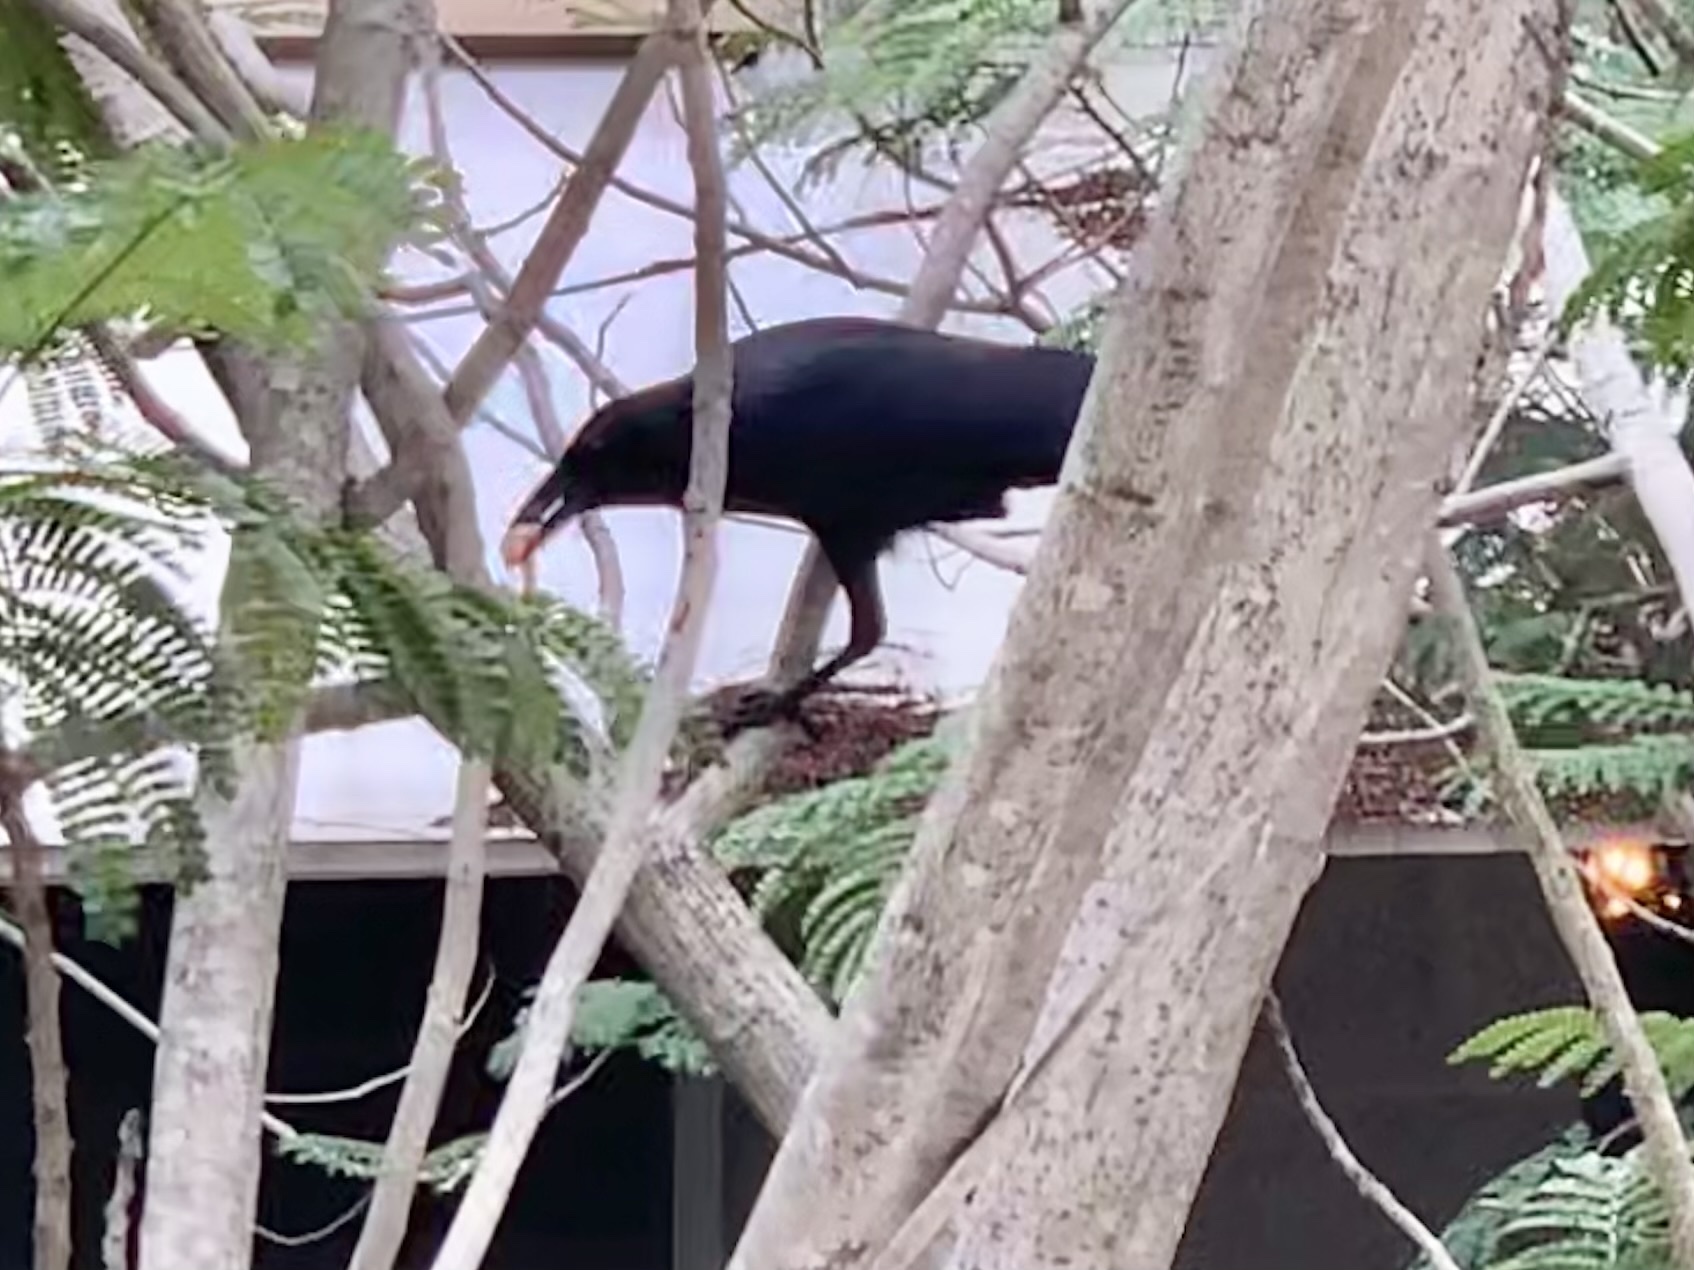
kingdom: Animalia
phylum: Chordata
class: Aves
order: Passeriformes
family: Corvidae
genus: Corvus
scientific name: Corvus macrorhynchos
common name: Large-billed crow
